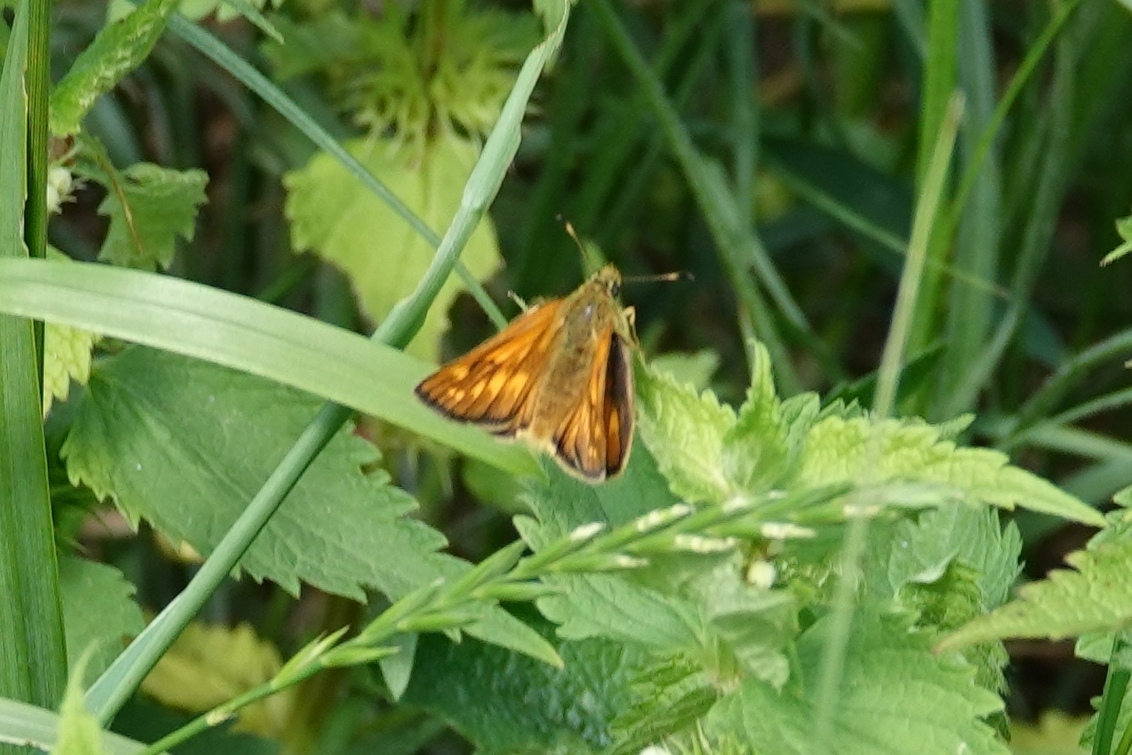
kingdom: Animalia
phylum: Arthropoda
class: Insecta
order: Lepidoptera
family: Hesperiidae
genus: Ochlodes
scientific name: Ochlodes venata
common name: Large skipper
